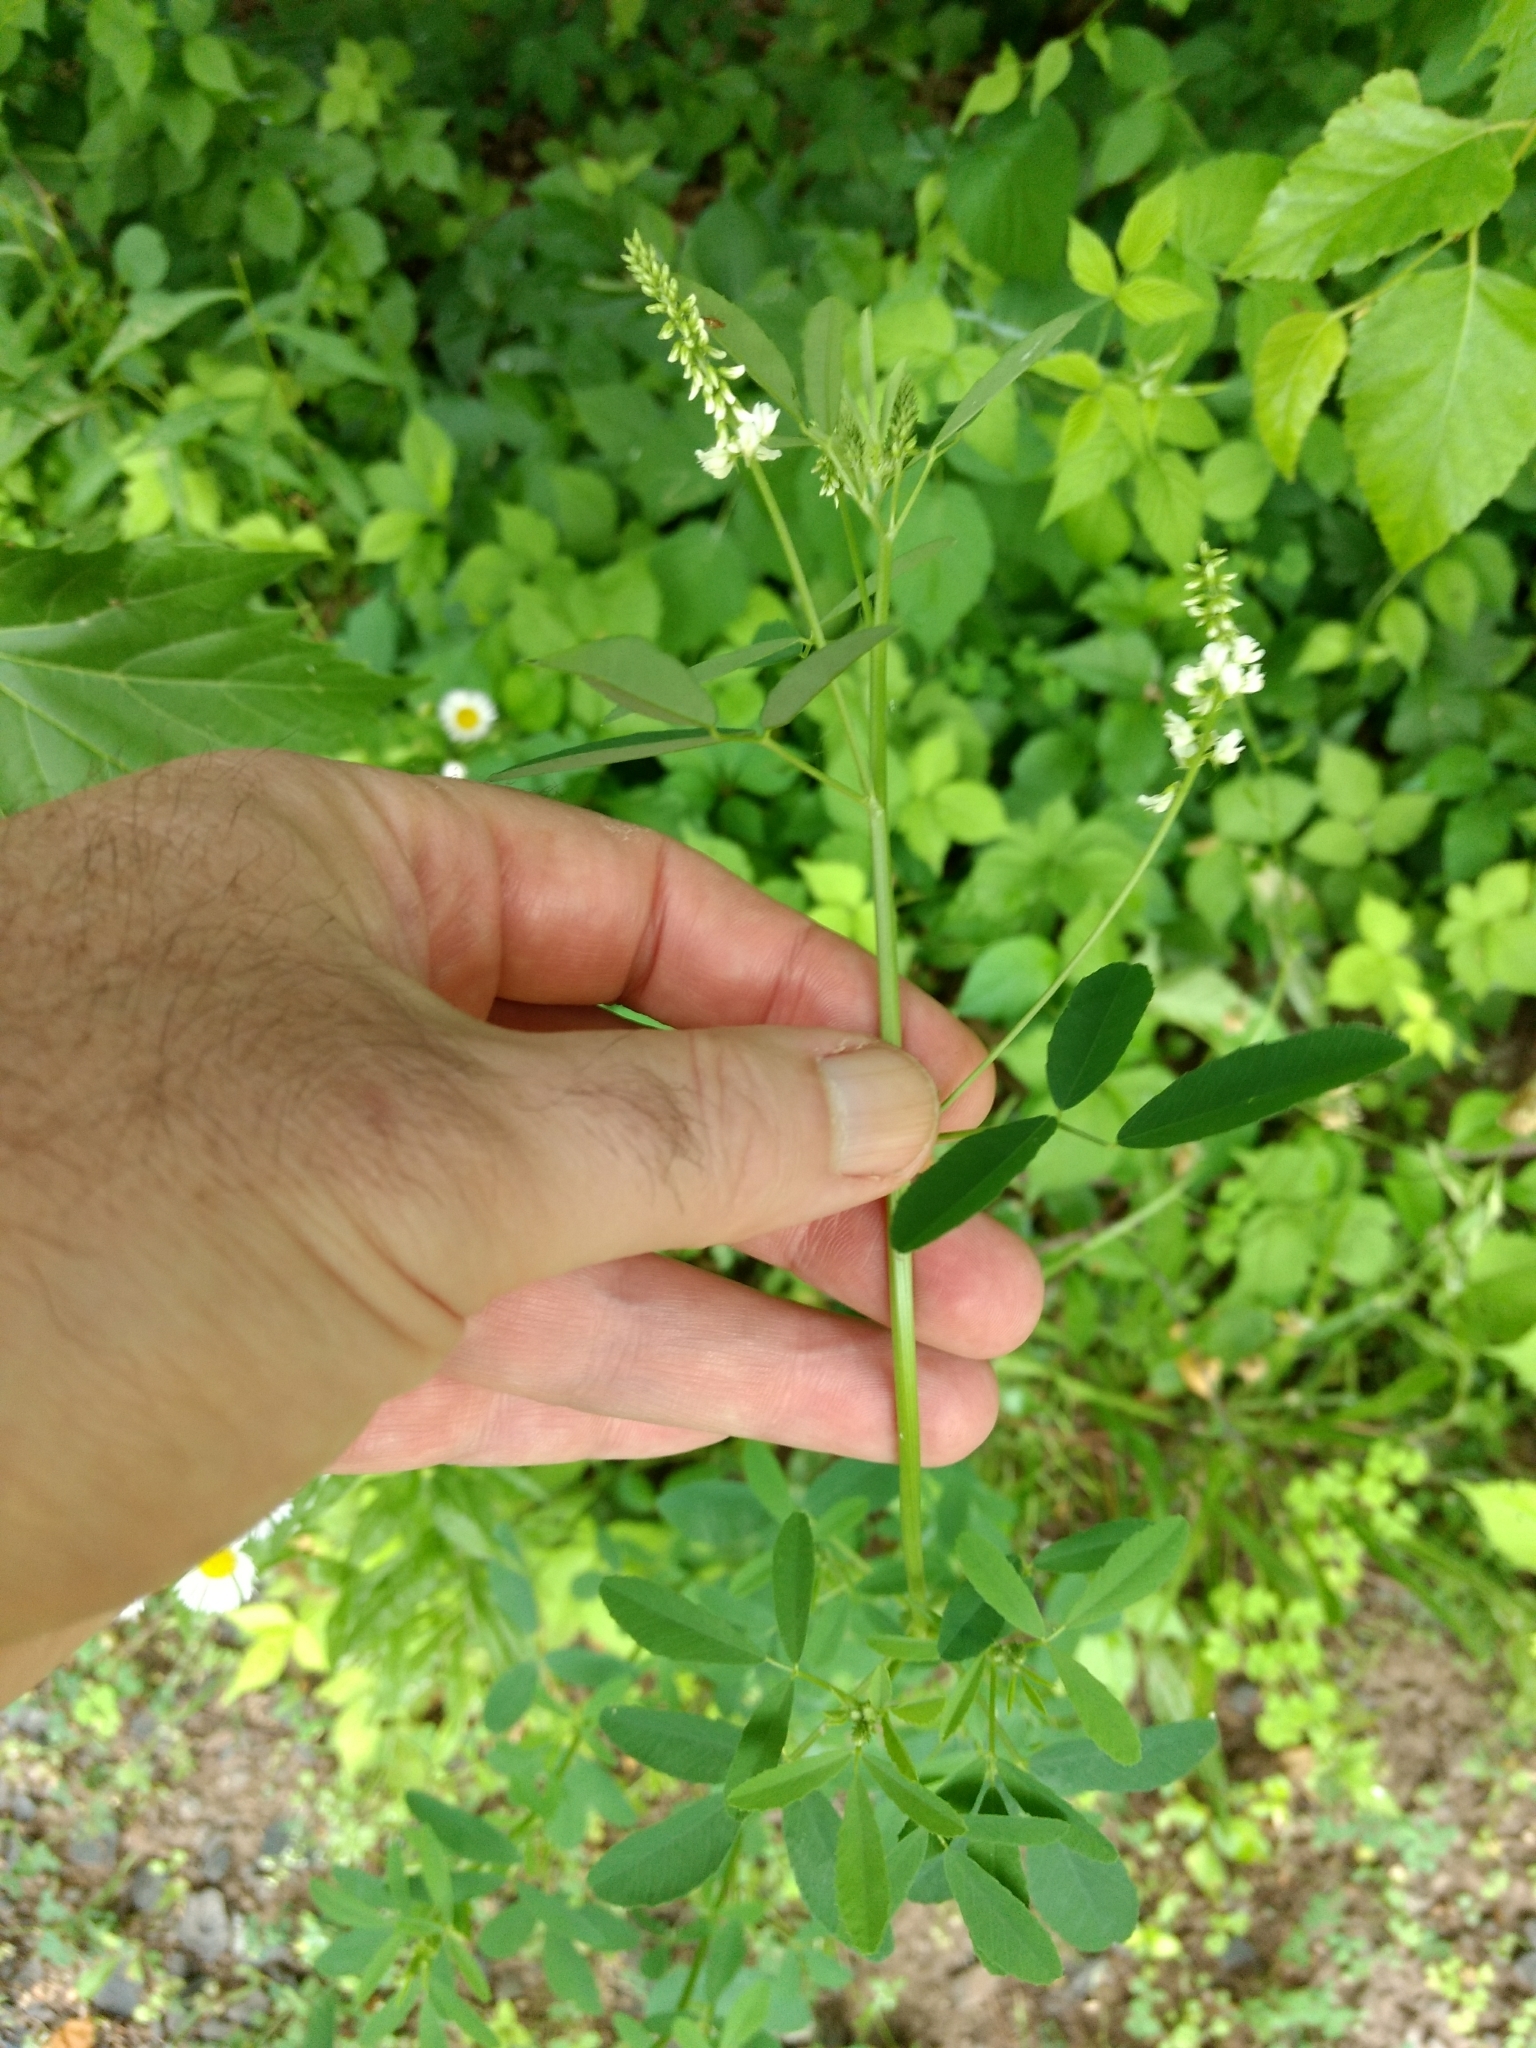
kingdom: Plantae
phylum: Tracheophyta
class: Magnoliopsida
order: Fabales
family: Fabaceae
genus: Melilotus
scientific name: Melilotus albus
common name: White melilot
